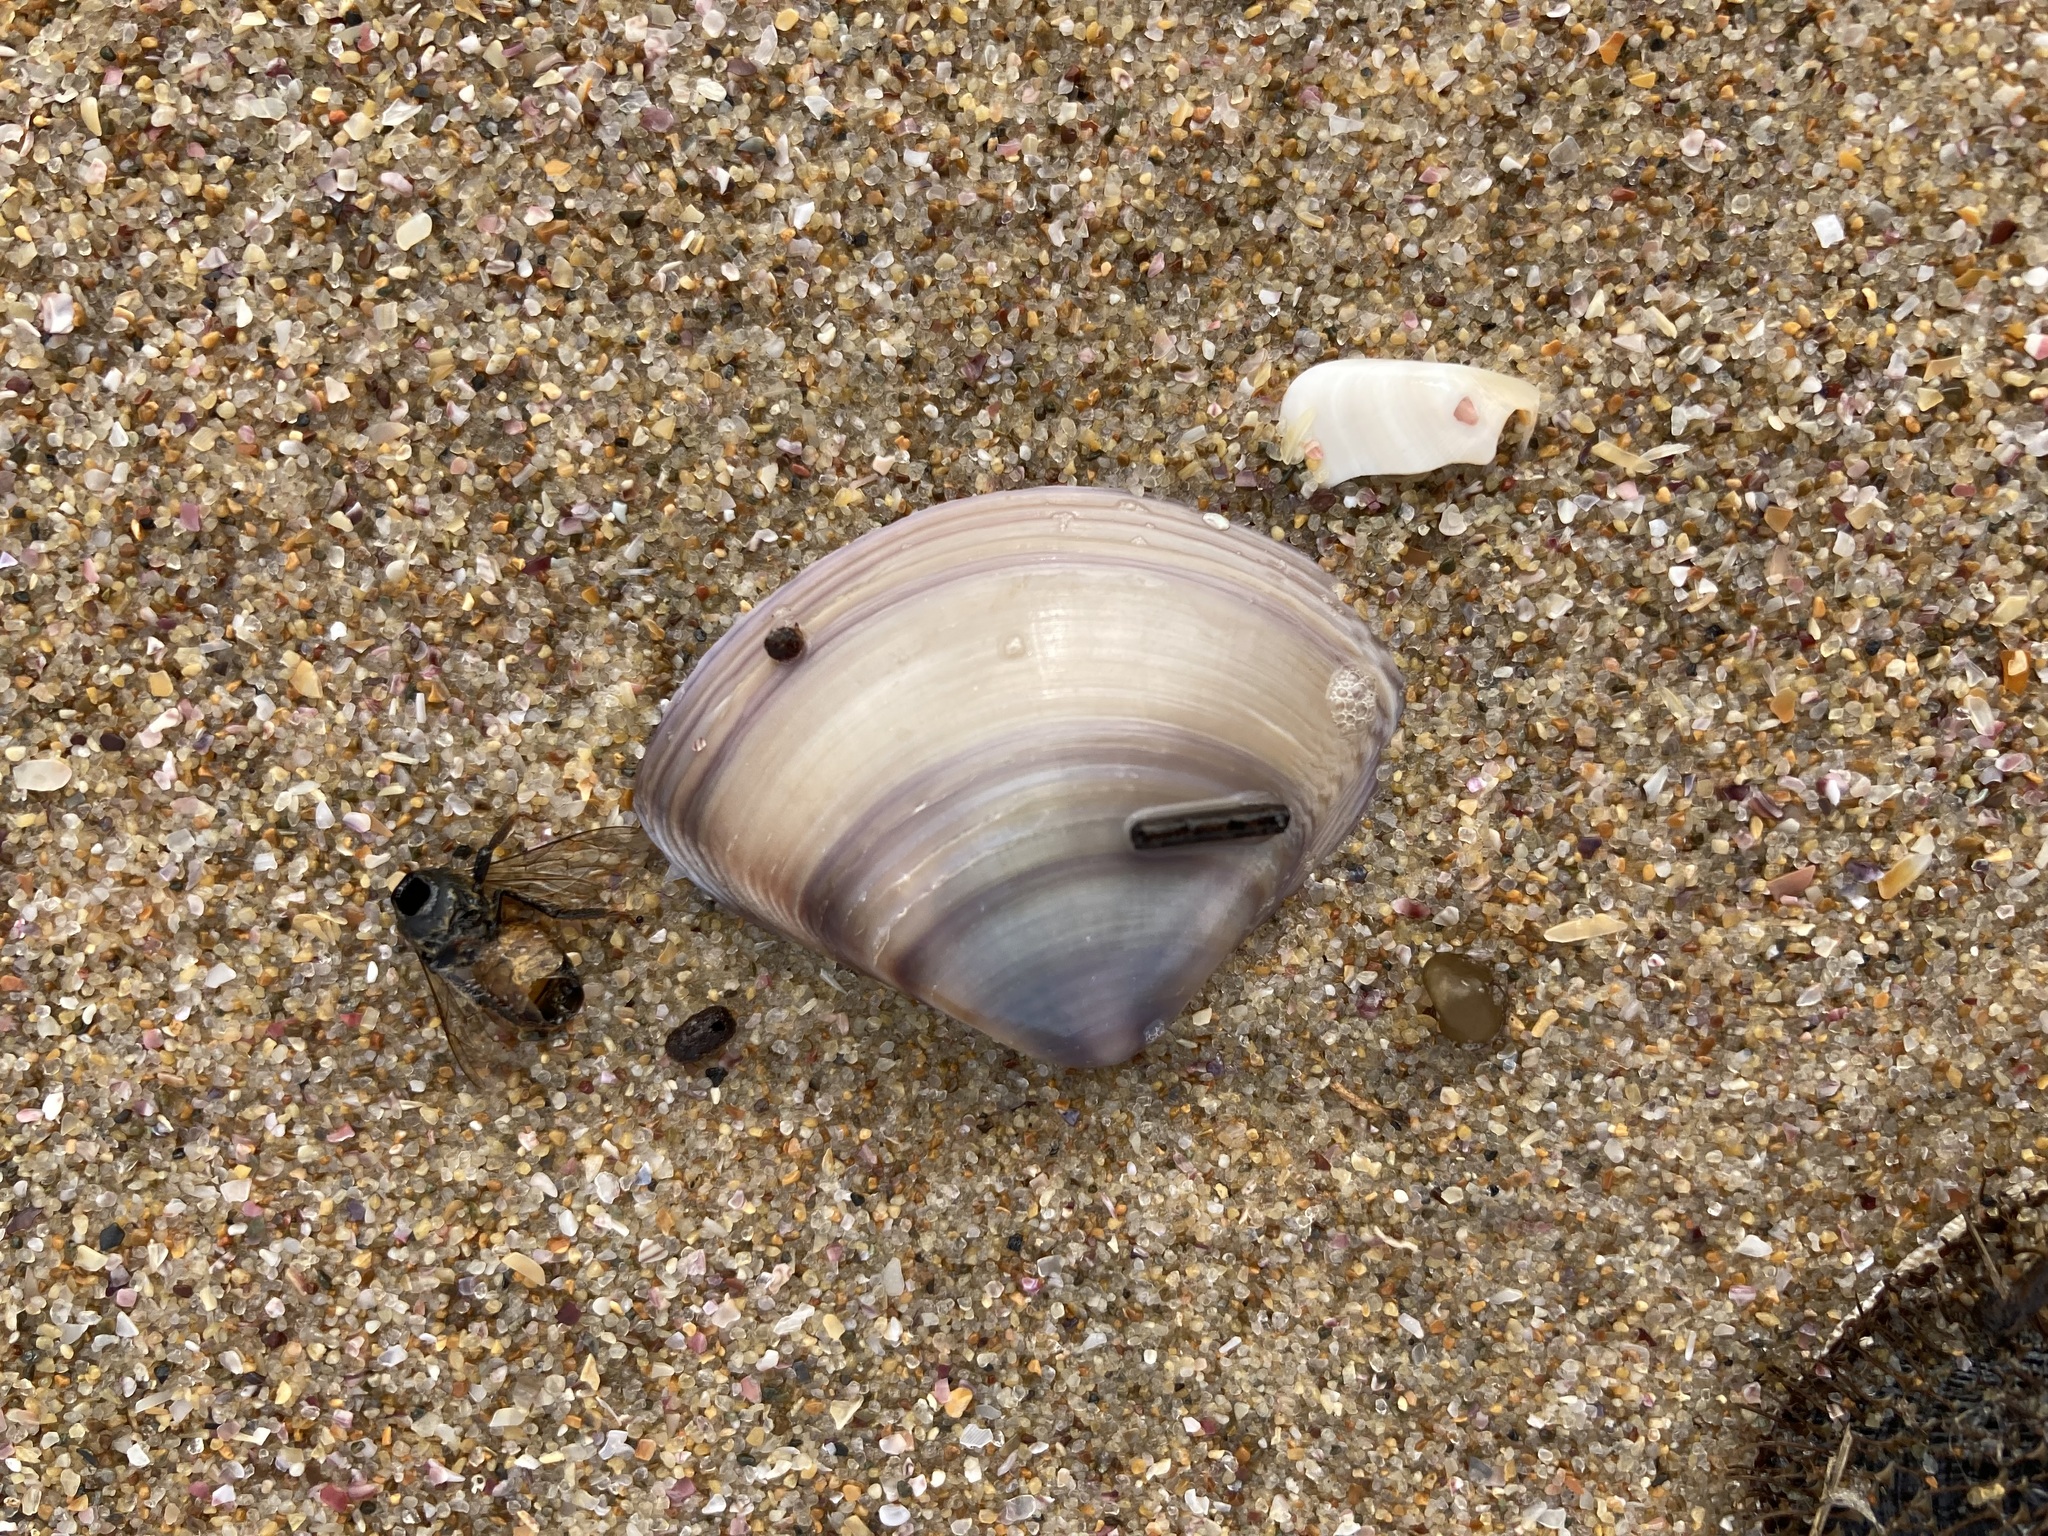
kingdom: Animalia
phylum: Mollusca
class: Bivalvia
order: Venerida
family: Mactridae
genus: Austromactra
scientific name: Austromactra contraria
